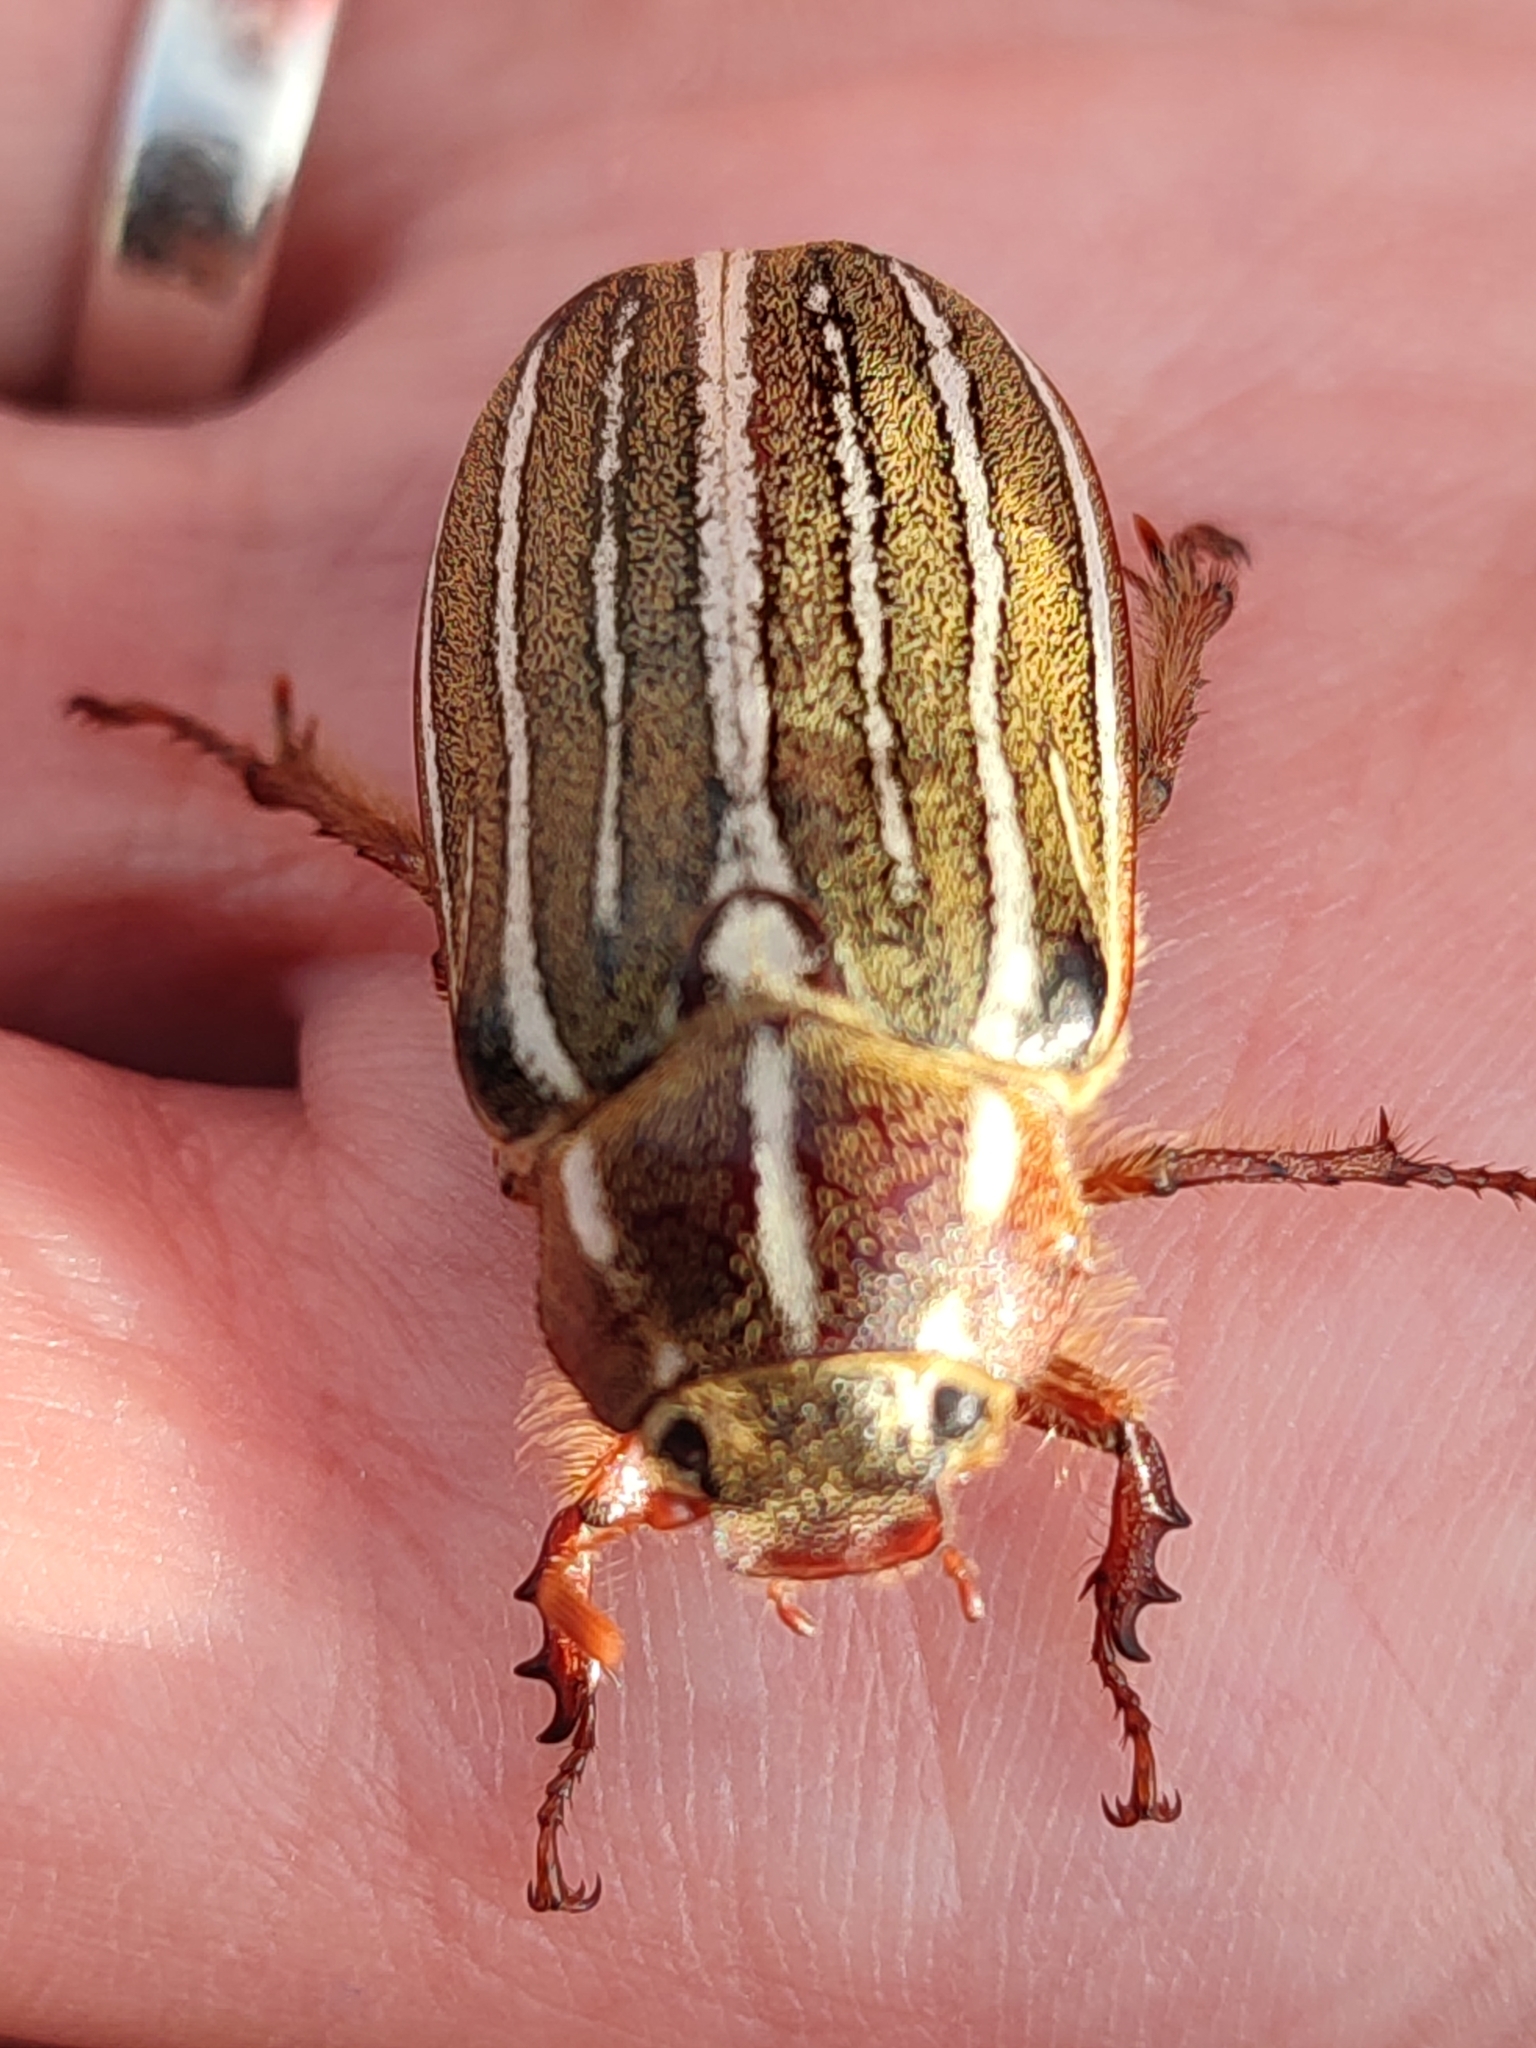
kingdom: Animalia
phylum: Arthropoda
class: Insecta
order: Coleoptera
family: Scarabaeidae
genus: Polyphylla
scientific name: Polyphylla crinita
